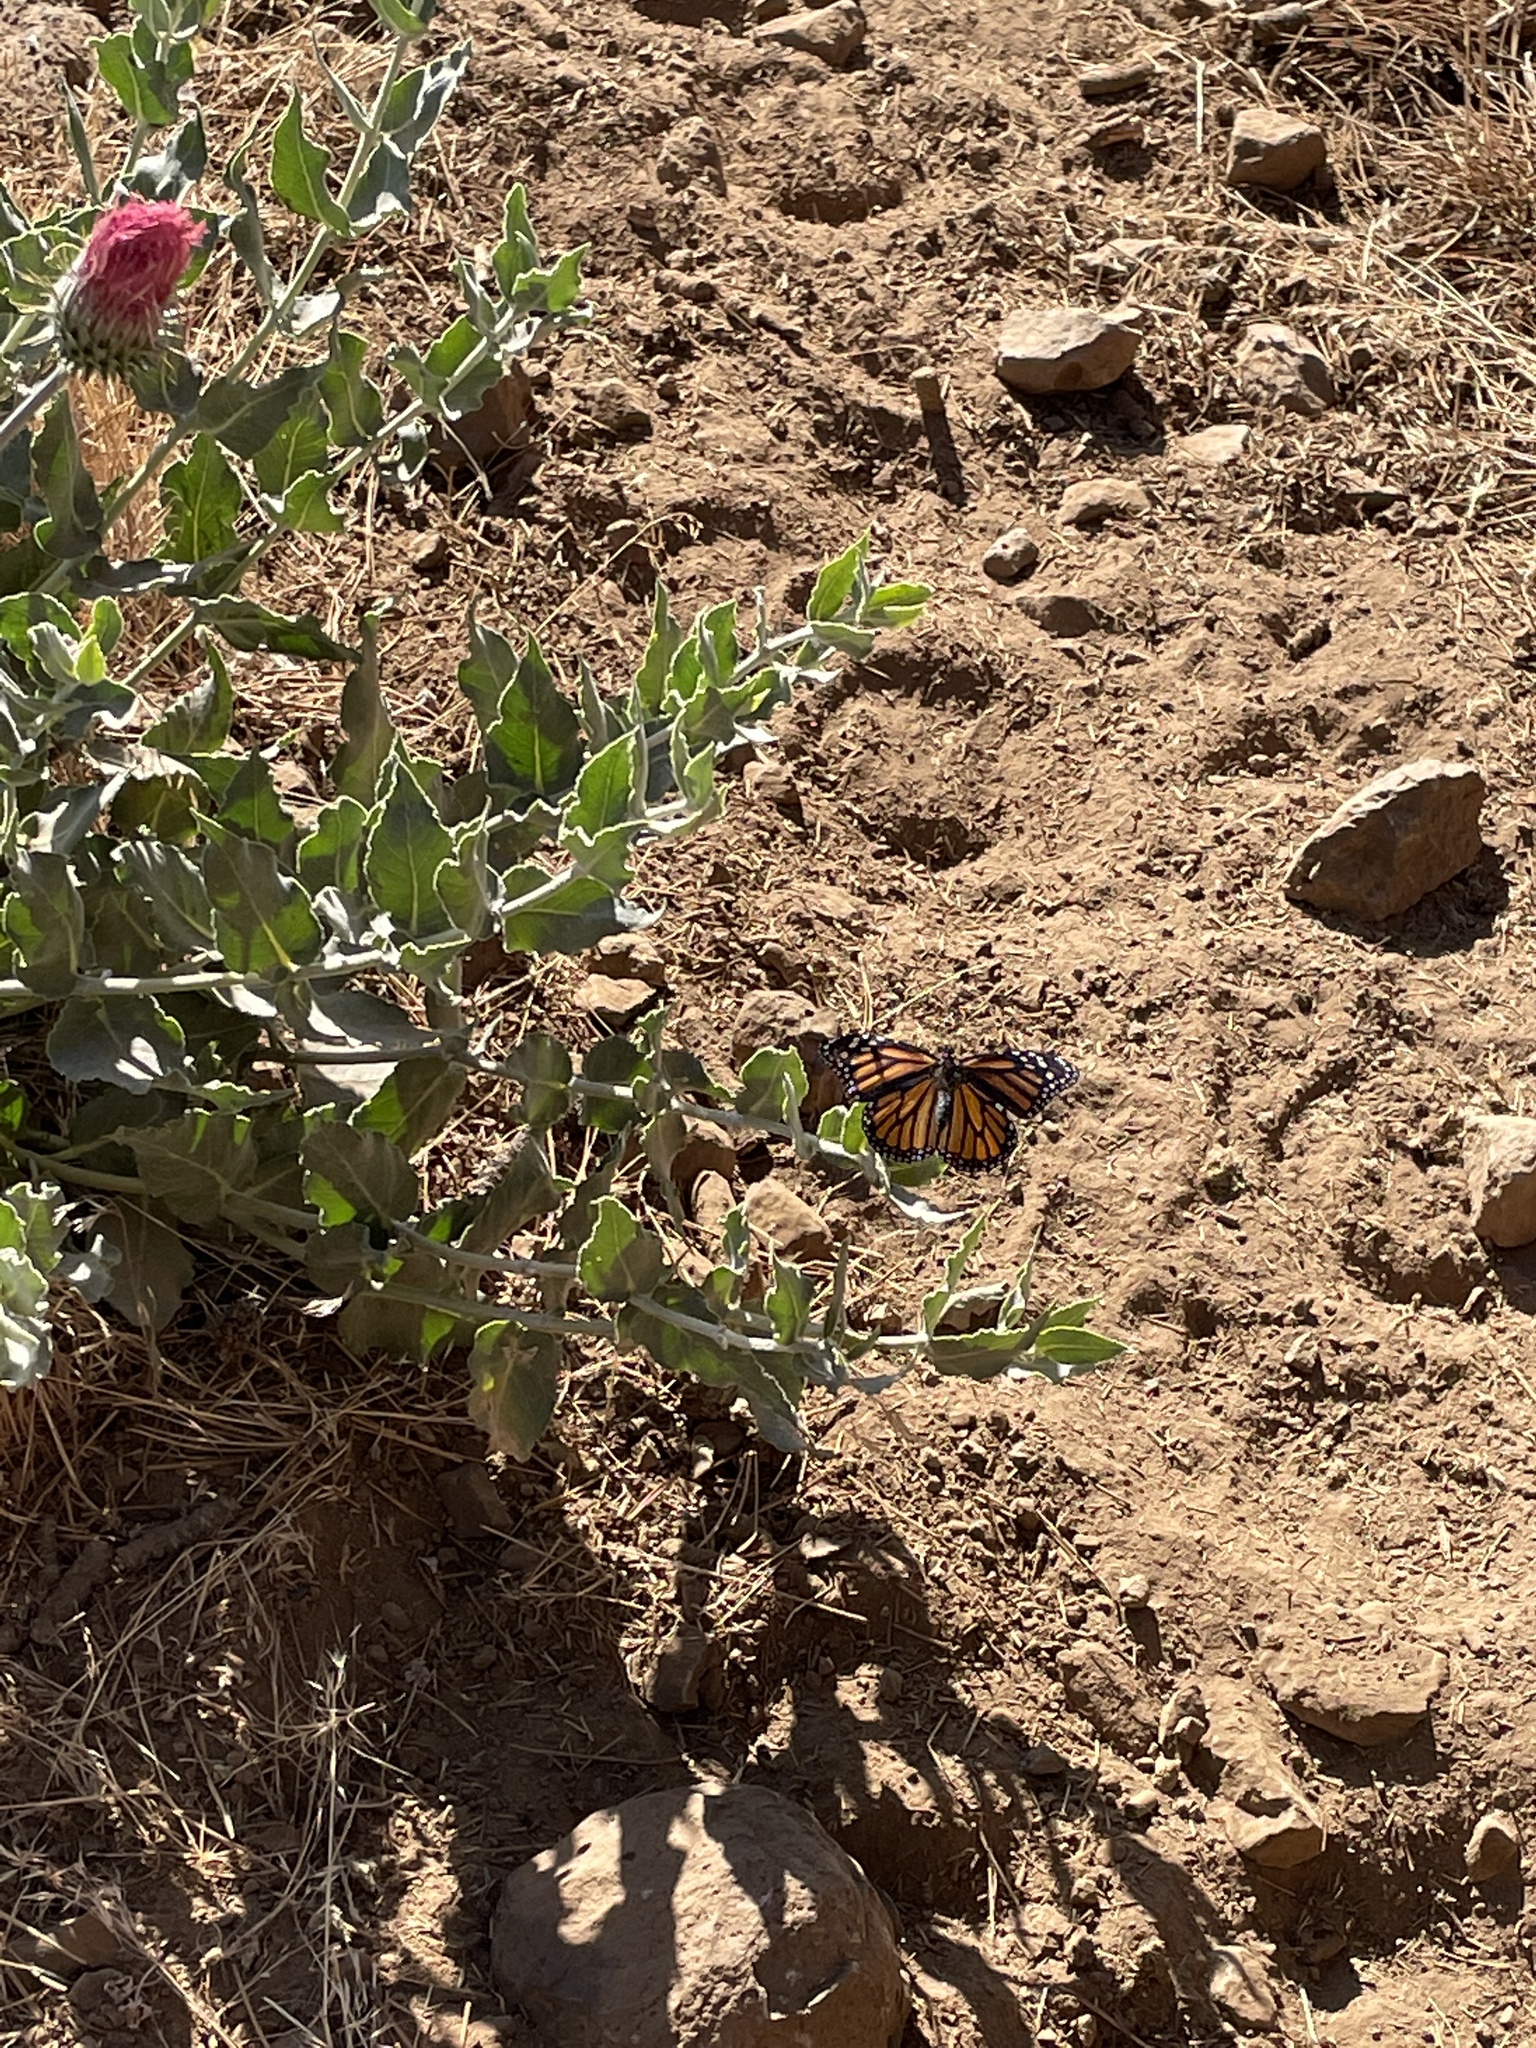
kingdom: Animalia
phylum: Arthropoda
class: Insecta
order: Lepidoptera
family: Nymphalidae
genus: Danaus
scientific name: Danaus plexippus
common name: Monarch
